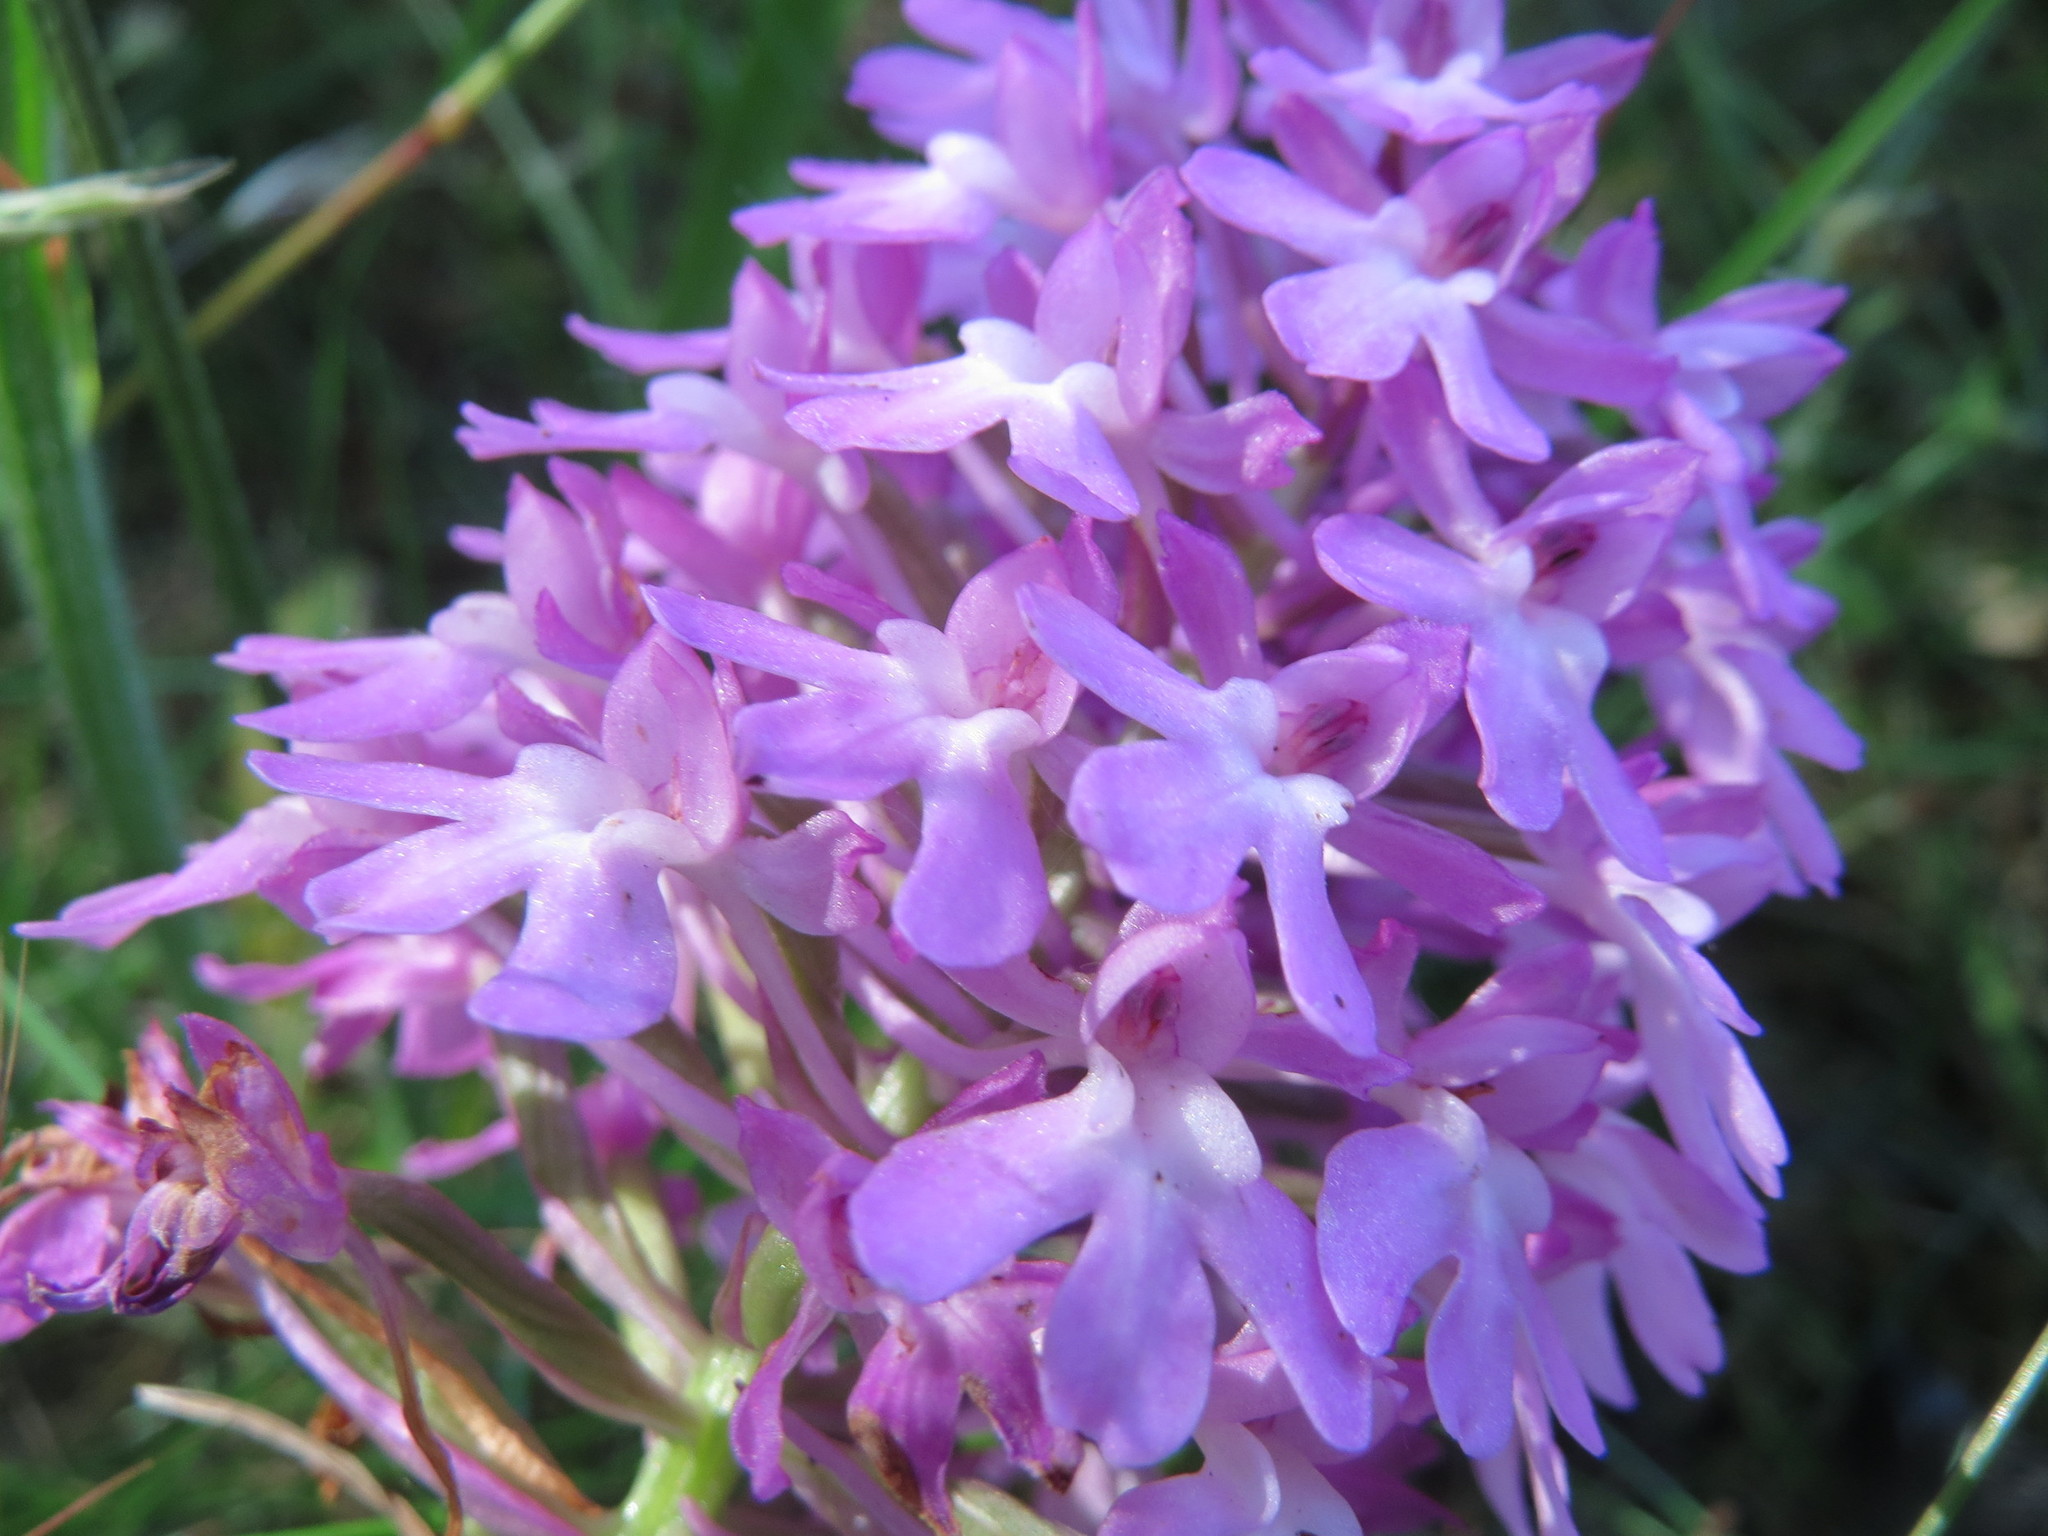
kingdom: Plantae
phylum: Tracheophyta
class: Liliopsida
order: Asparagales
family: Orchidaceae
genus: Anacamptis
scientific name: Anacamptis pyramidalis
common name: Pyramidal orchid
